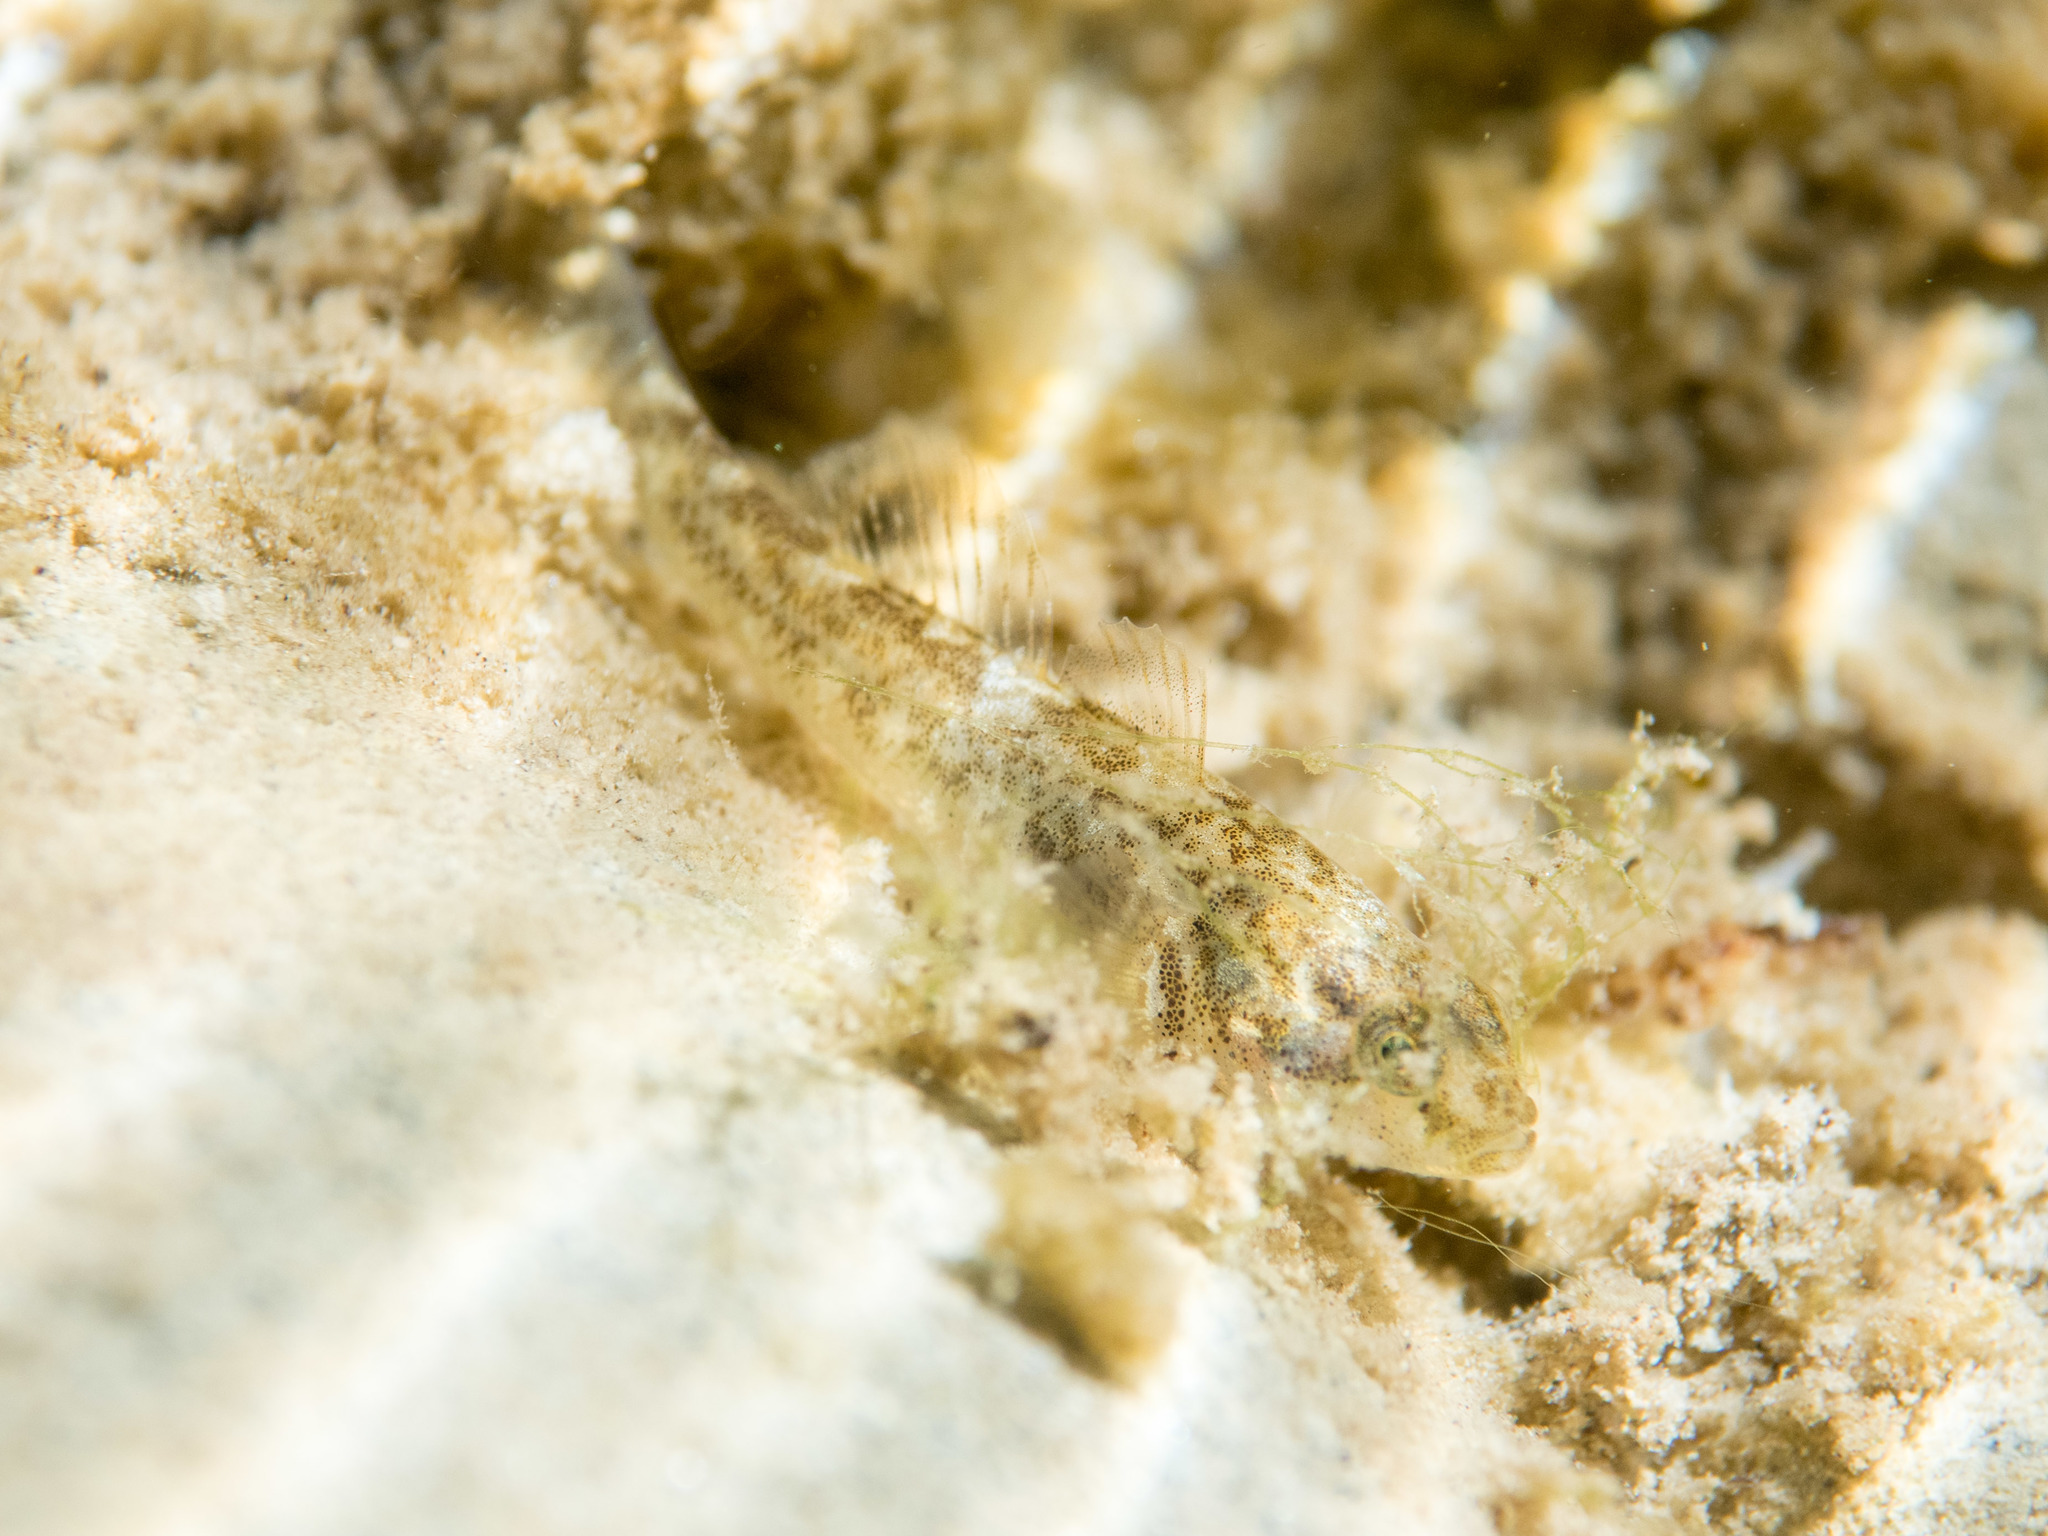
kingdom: Animalia
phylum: Chordata
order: Perciformes
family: Gobiidae
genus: Padogobius
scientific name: Padogobius bonelli
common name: Padanian goby
